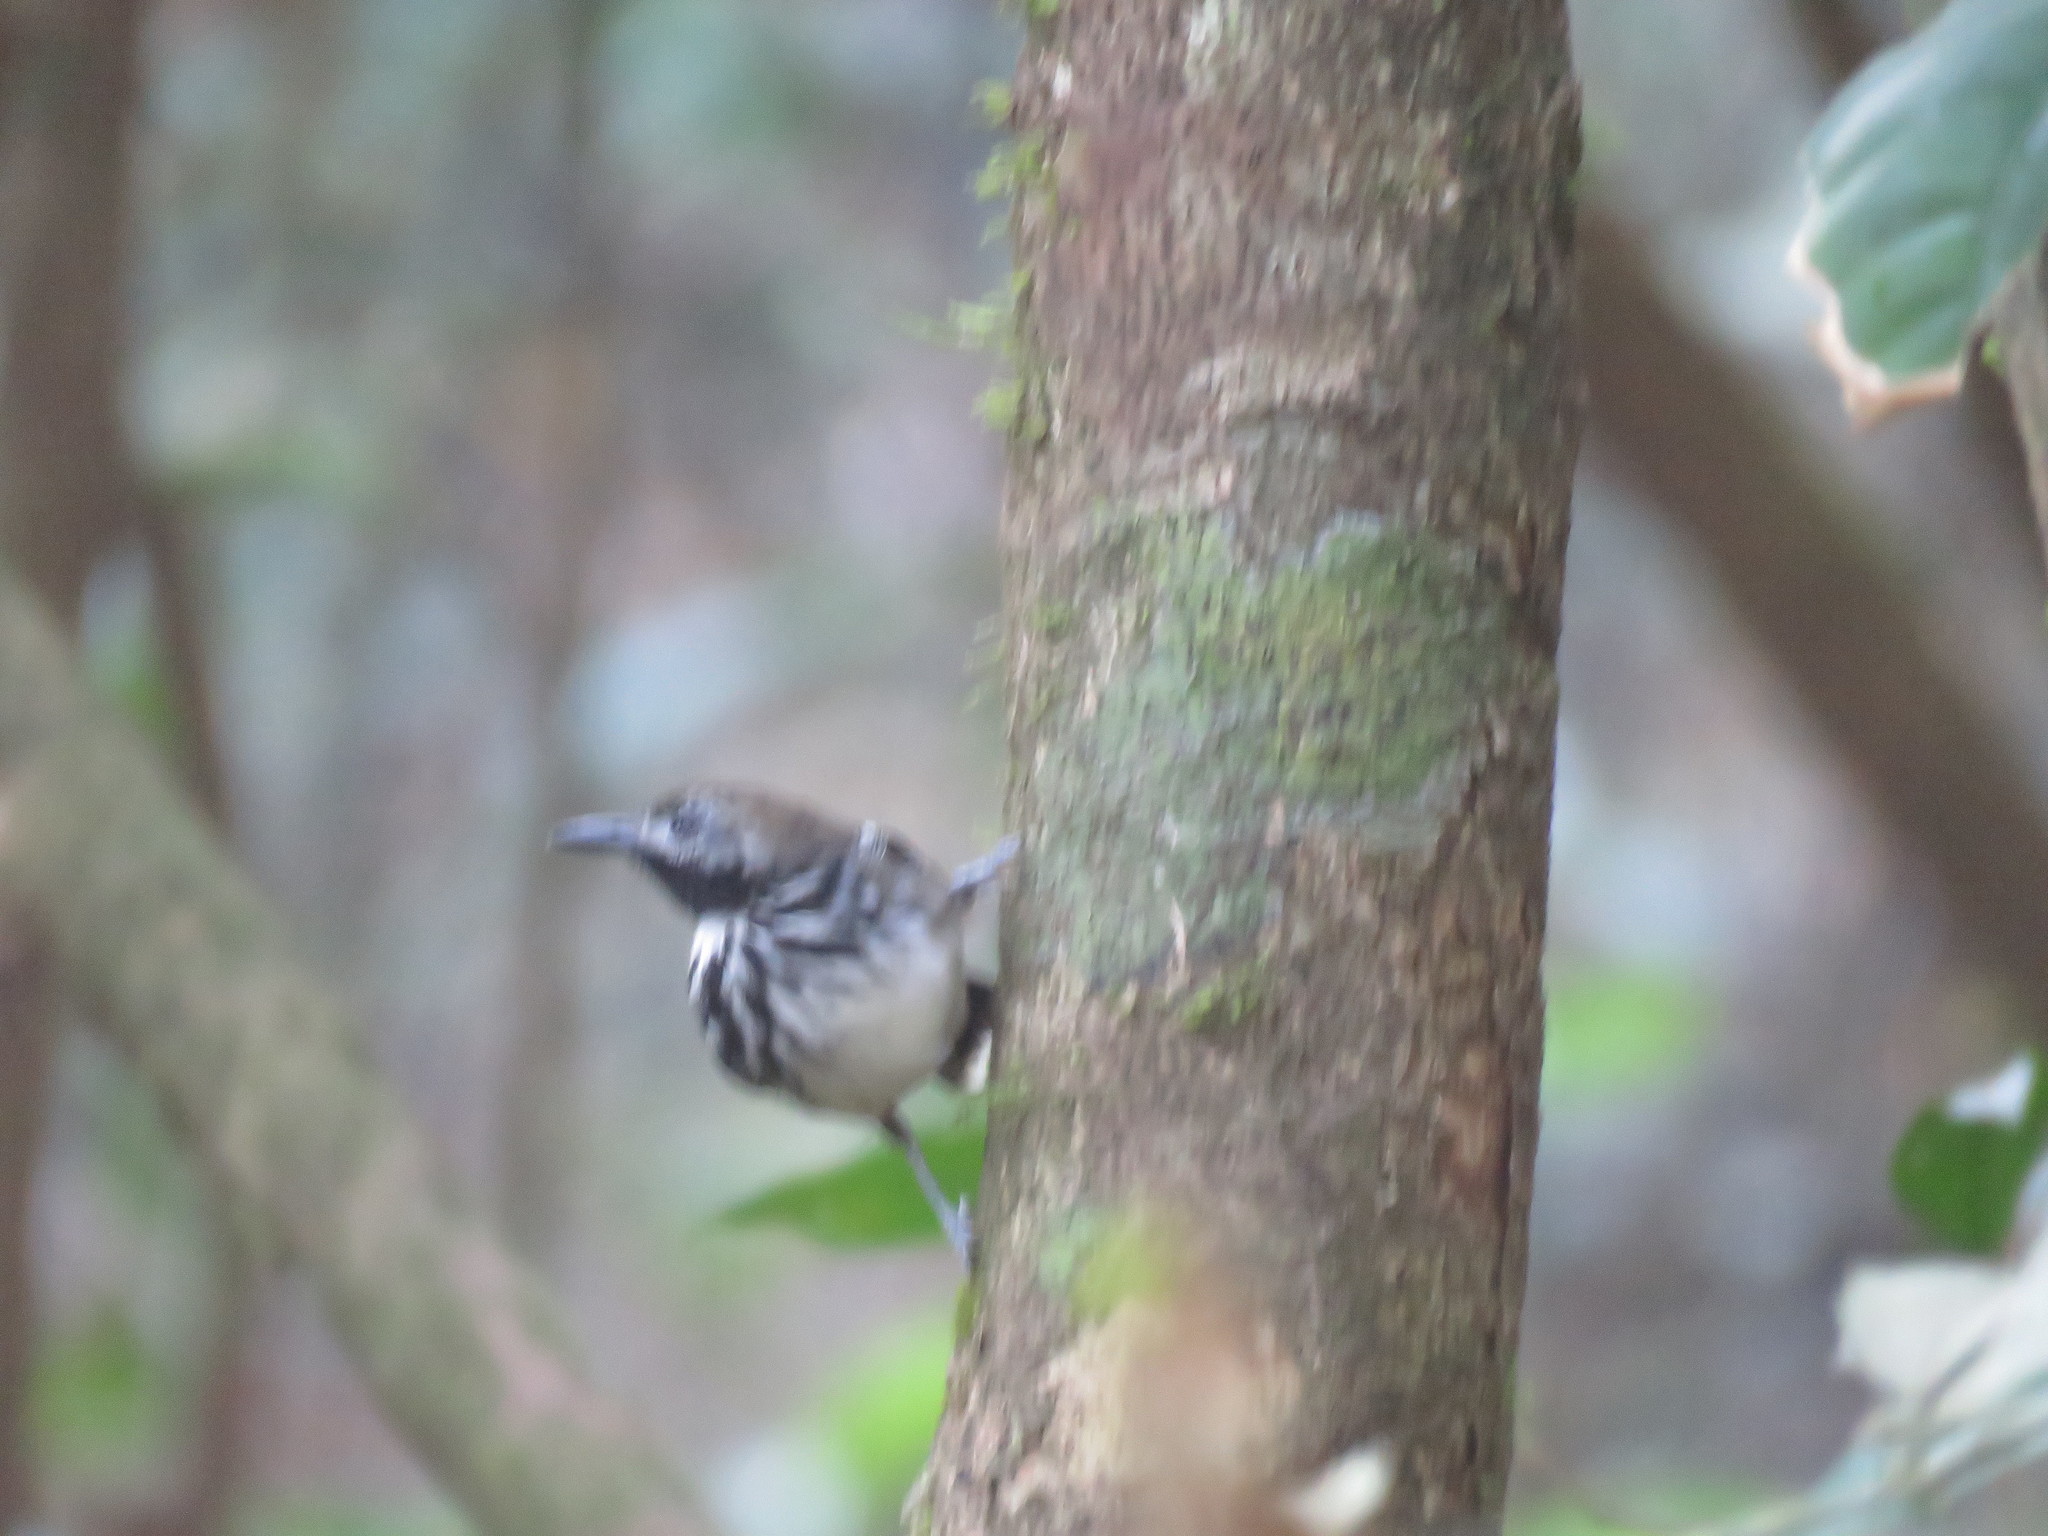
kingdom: Animalia
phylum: Chordata
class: Aves
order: Passeriformes
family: Thamnophilidae
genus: Hylophylax
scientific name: Hylophylax punctulatus
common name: Dot-backed antbird
